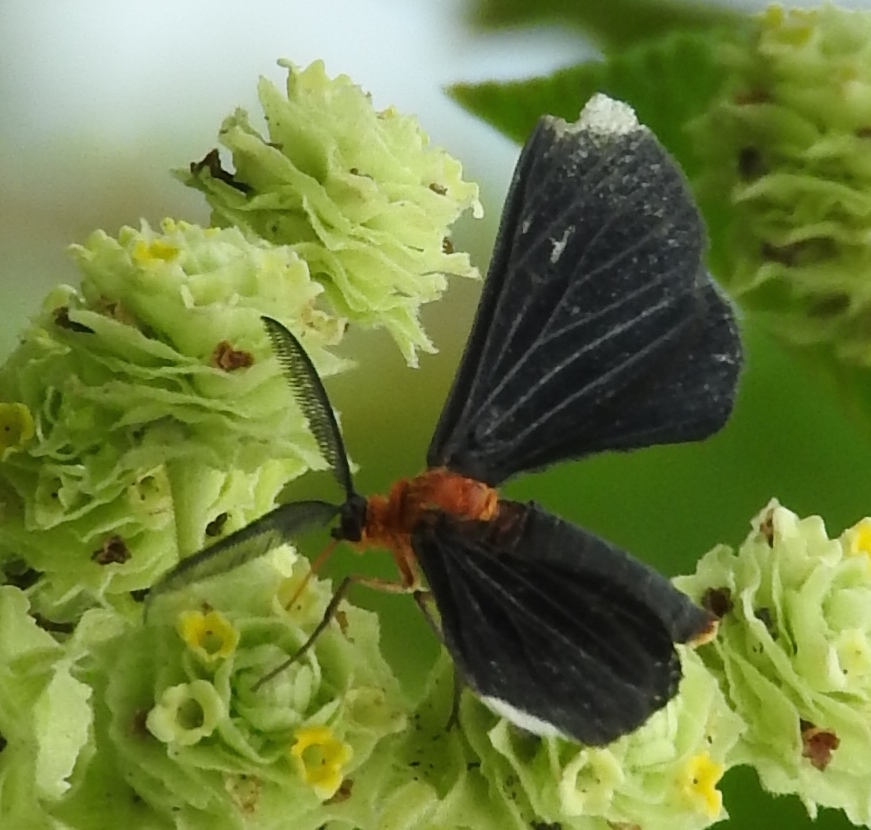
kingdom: Animalia
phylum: Arthropoda
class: Insecta
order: Lepidoptera
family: Geometridae
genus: Melanchroia
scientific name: Melanchroia chephise
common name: White-tipped black
